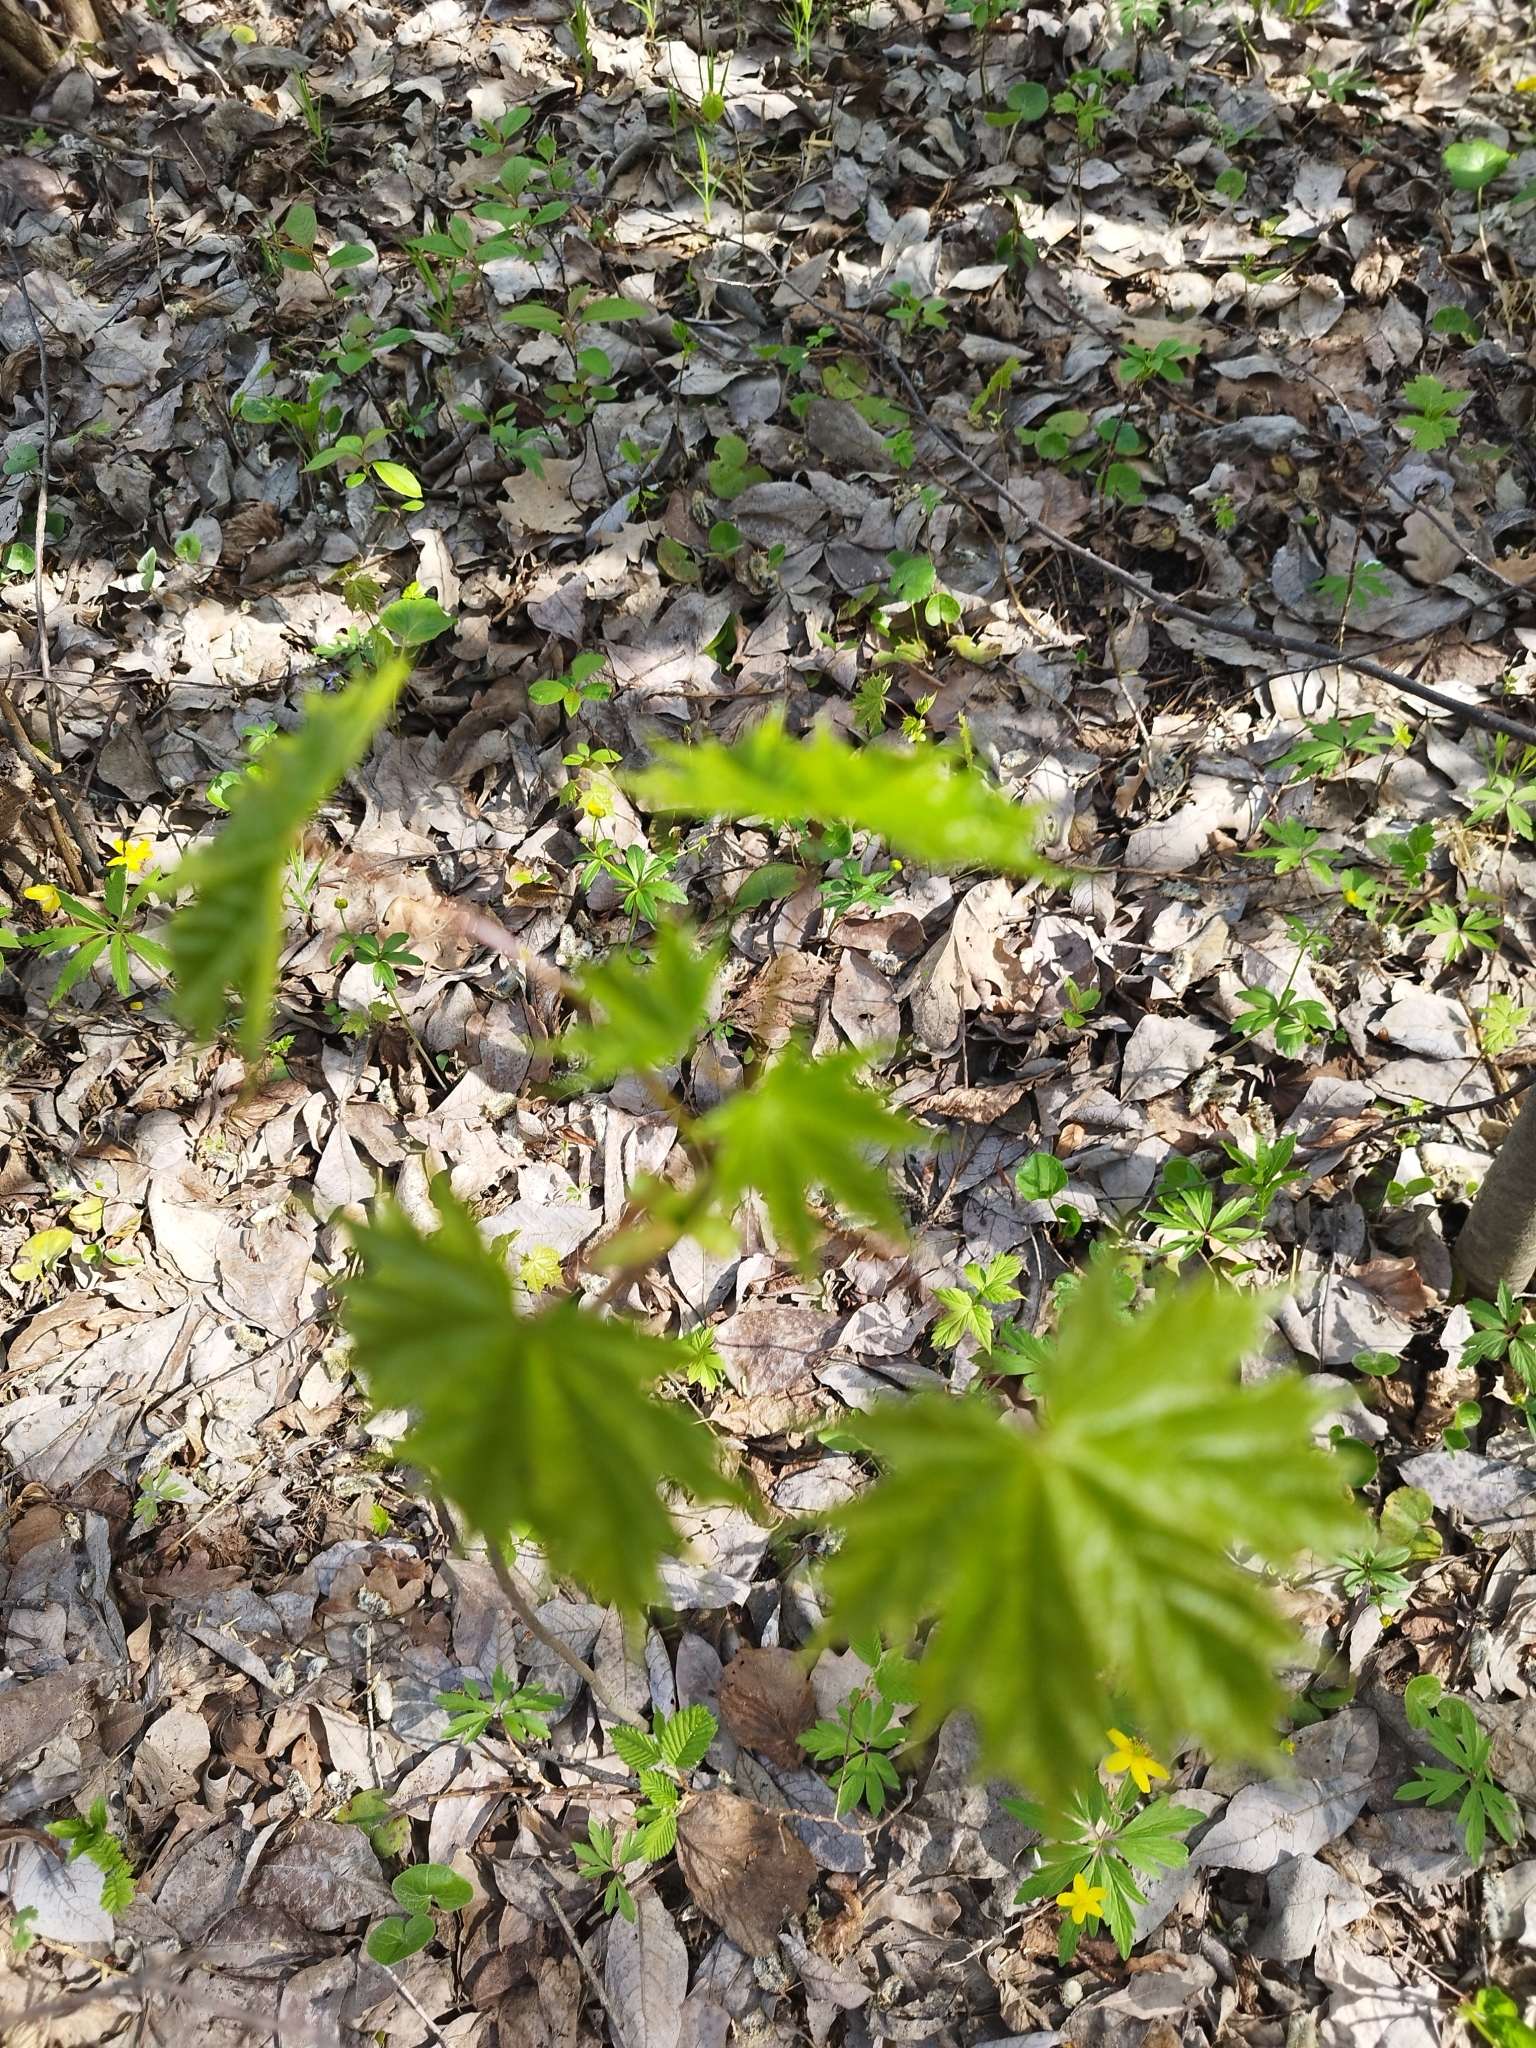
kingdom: Plantae
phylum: Tracheophyta
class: Magnoliopsida
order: Sapindales
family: Sapindaceae
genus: Acer
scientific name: Acer platanoides
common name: Norway maple
